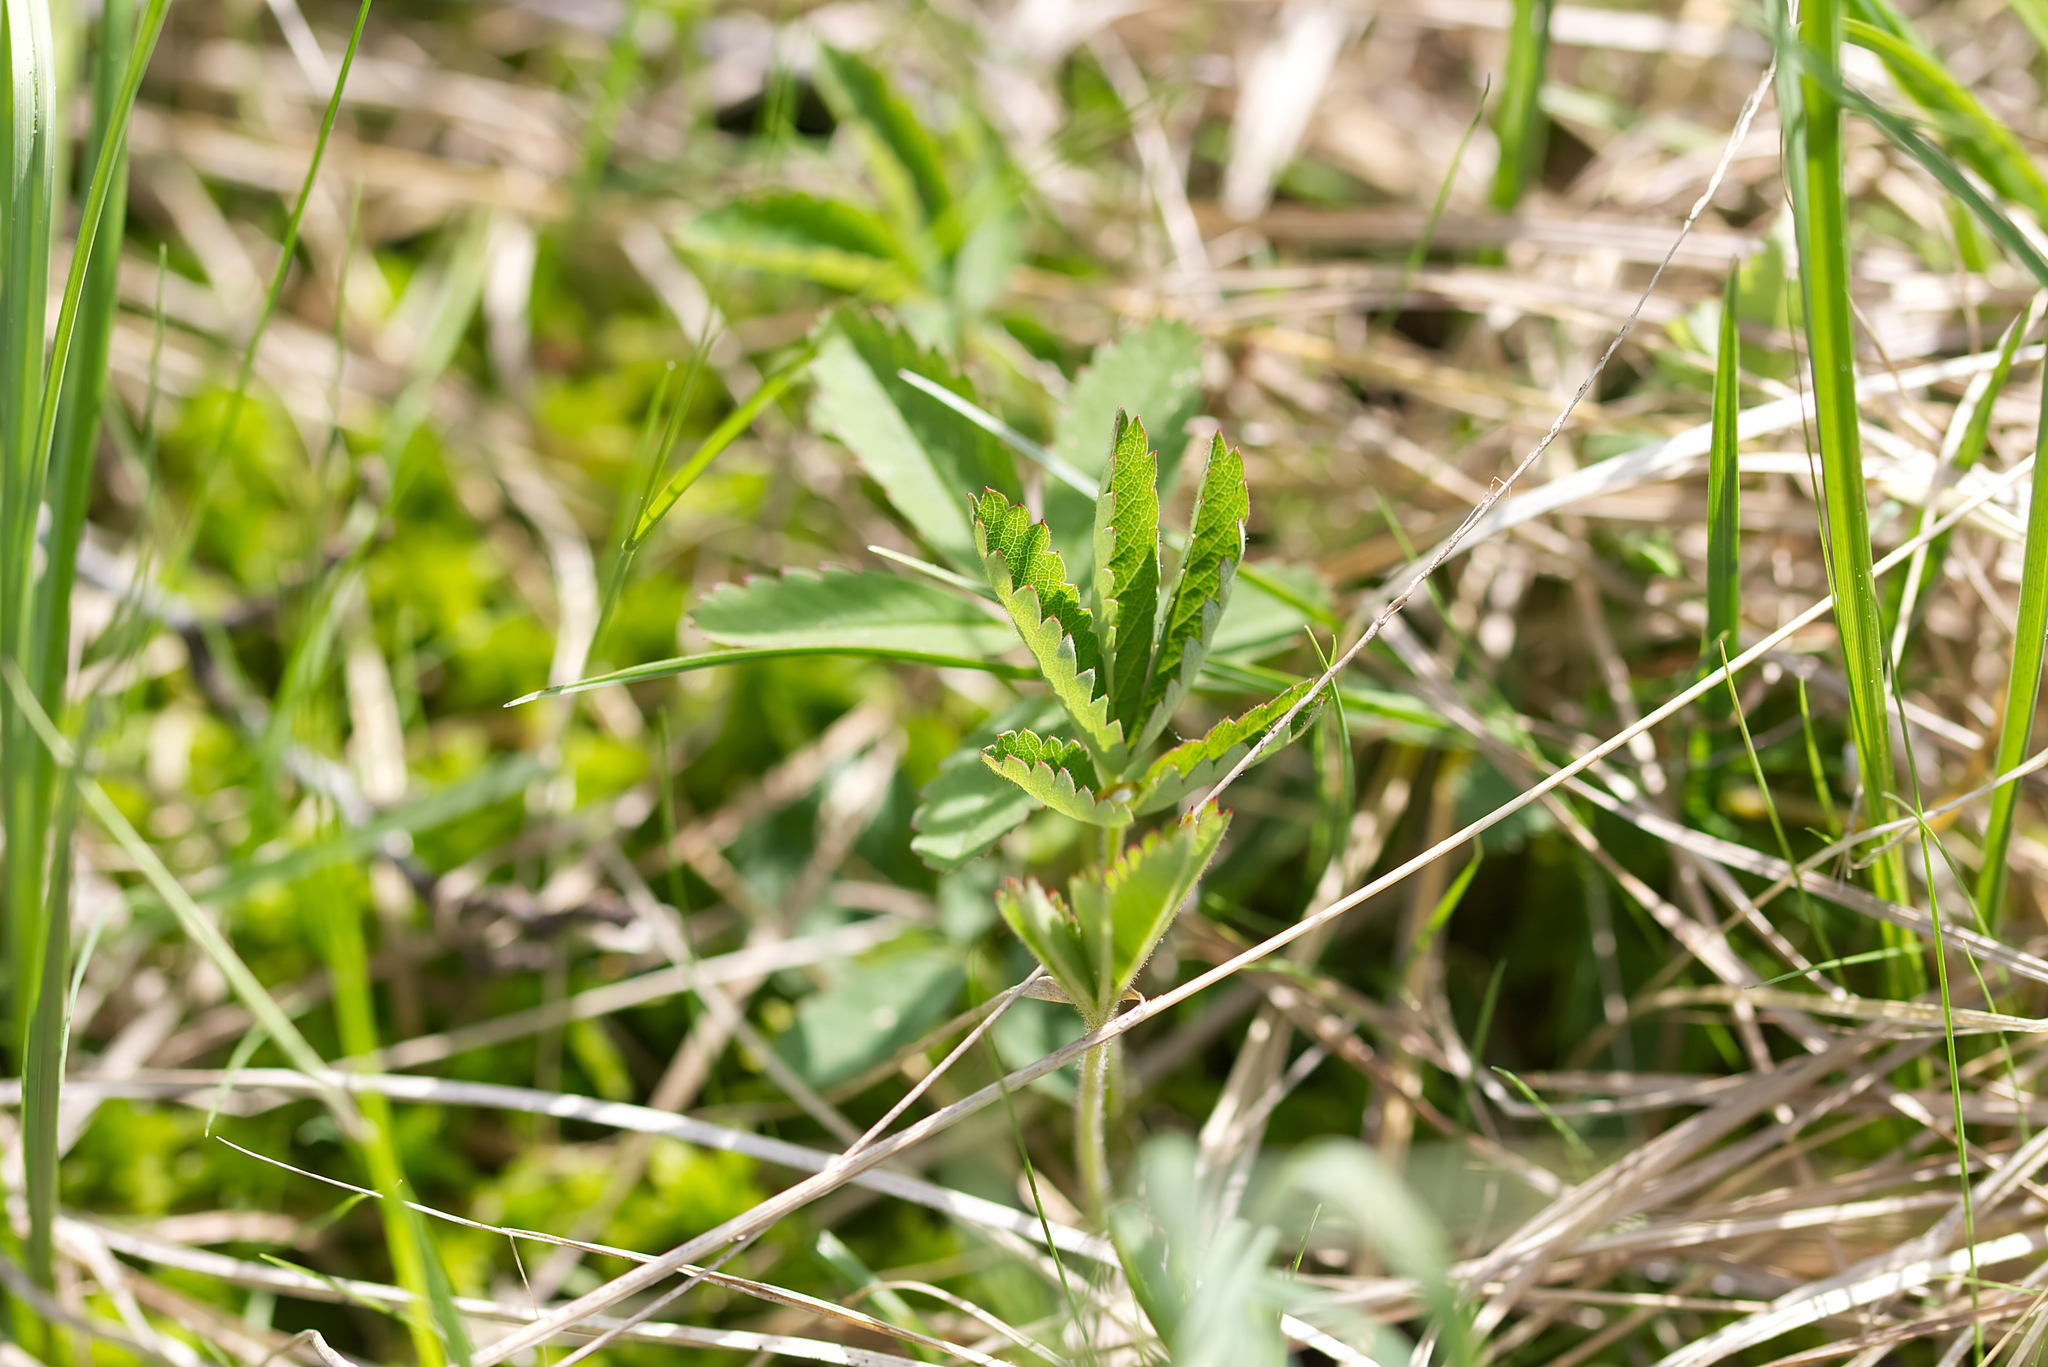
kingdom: Plantae
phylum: Tracheophyta
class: Magnoliopsida
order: Rosales
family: Rosaceae
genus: Comarum
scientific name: Comarum palustre
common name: Marsh cinquefoil
